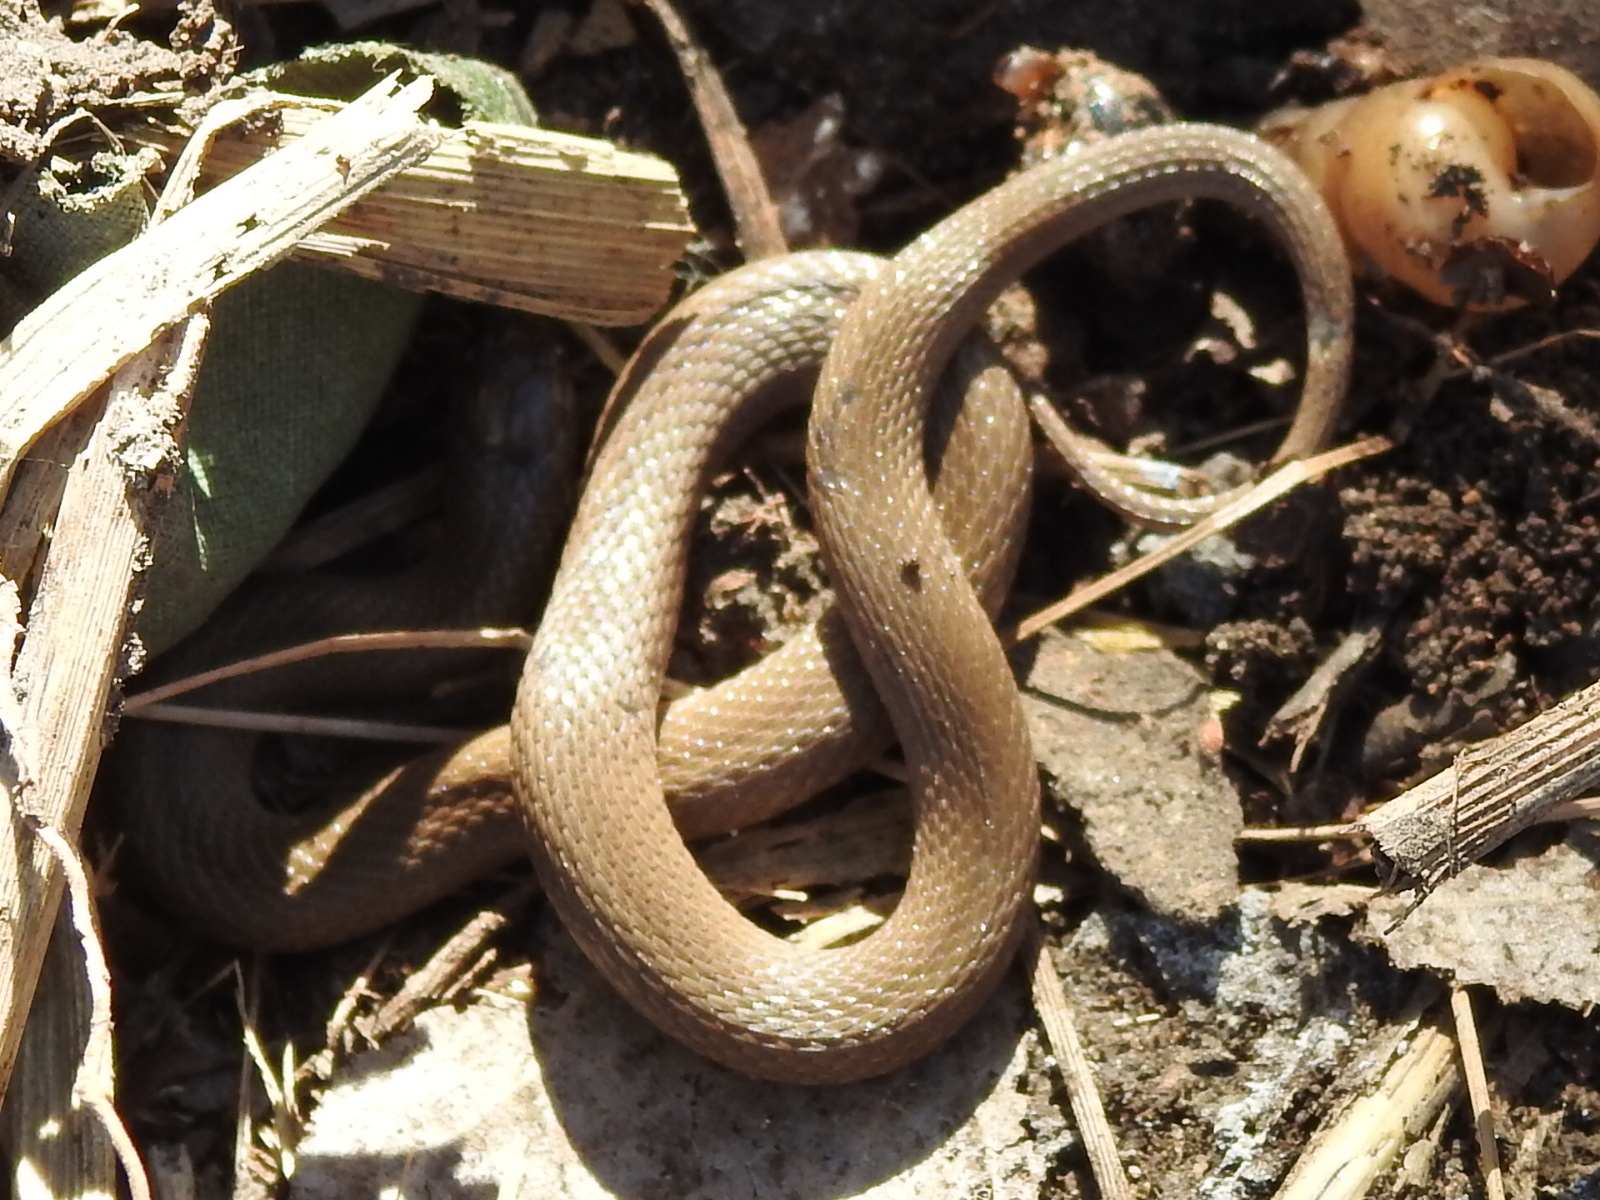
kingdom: Animalia
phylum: Chordata
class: Squamata
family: Colubridae
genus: Haldea
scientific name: Haldea striatula
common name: Rough earth snake
